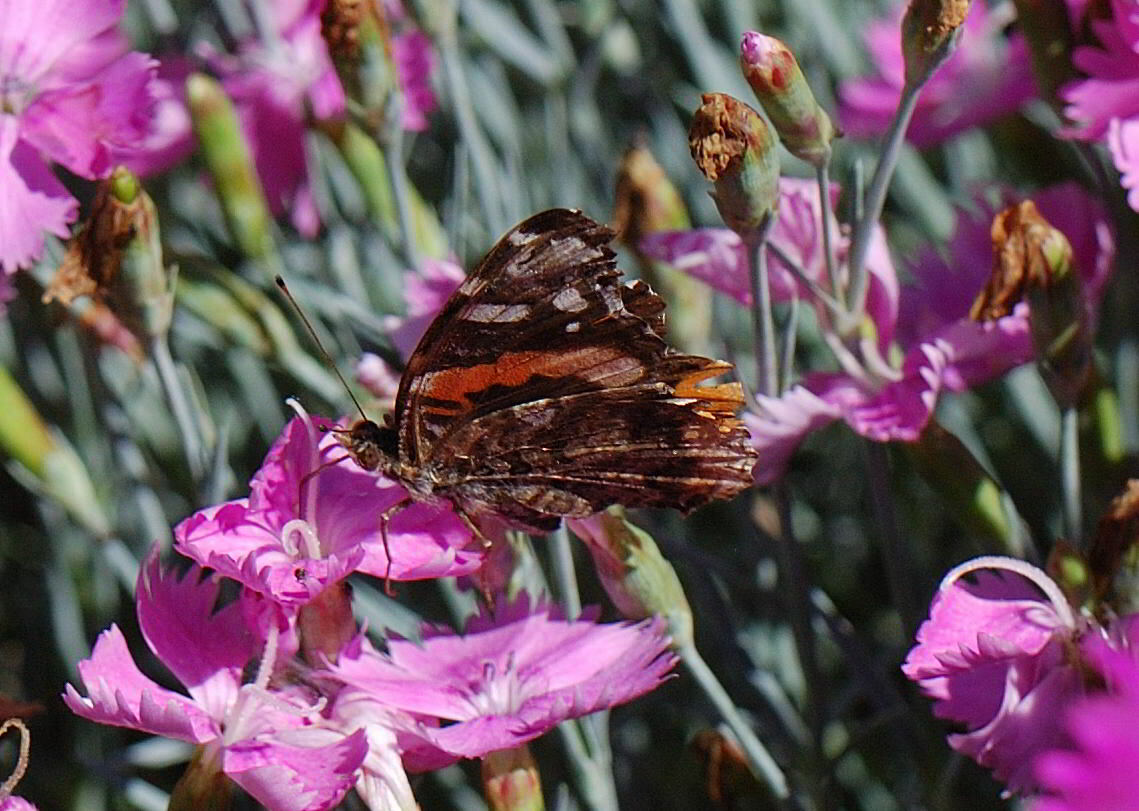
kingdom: Animalia
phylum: Arthropoda
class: Insecta
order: Lepidoptera
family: Nymphalidae
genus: Vanessa
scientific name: Vanessa atalanta
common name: Red admiral
